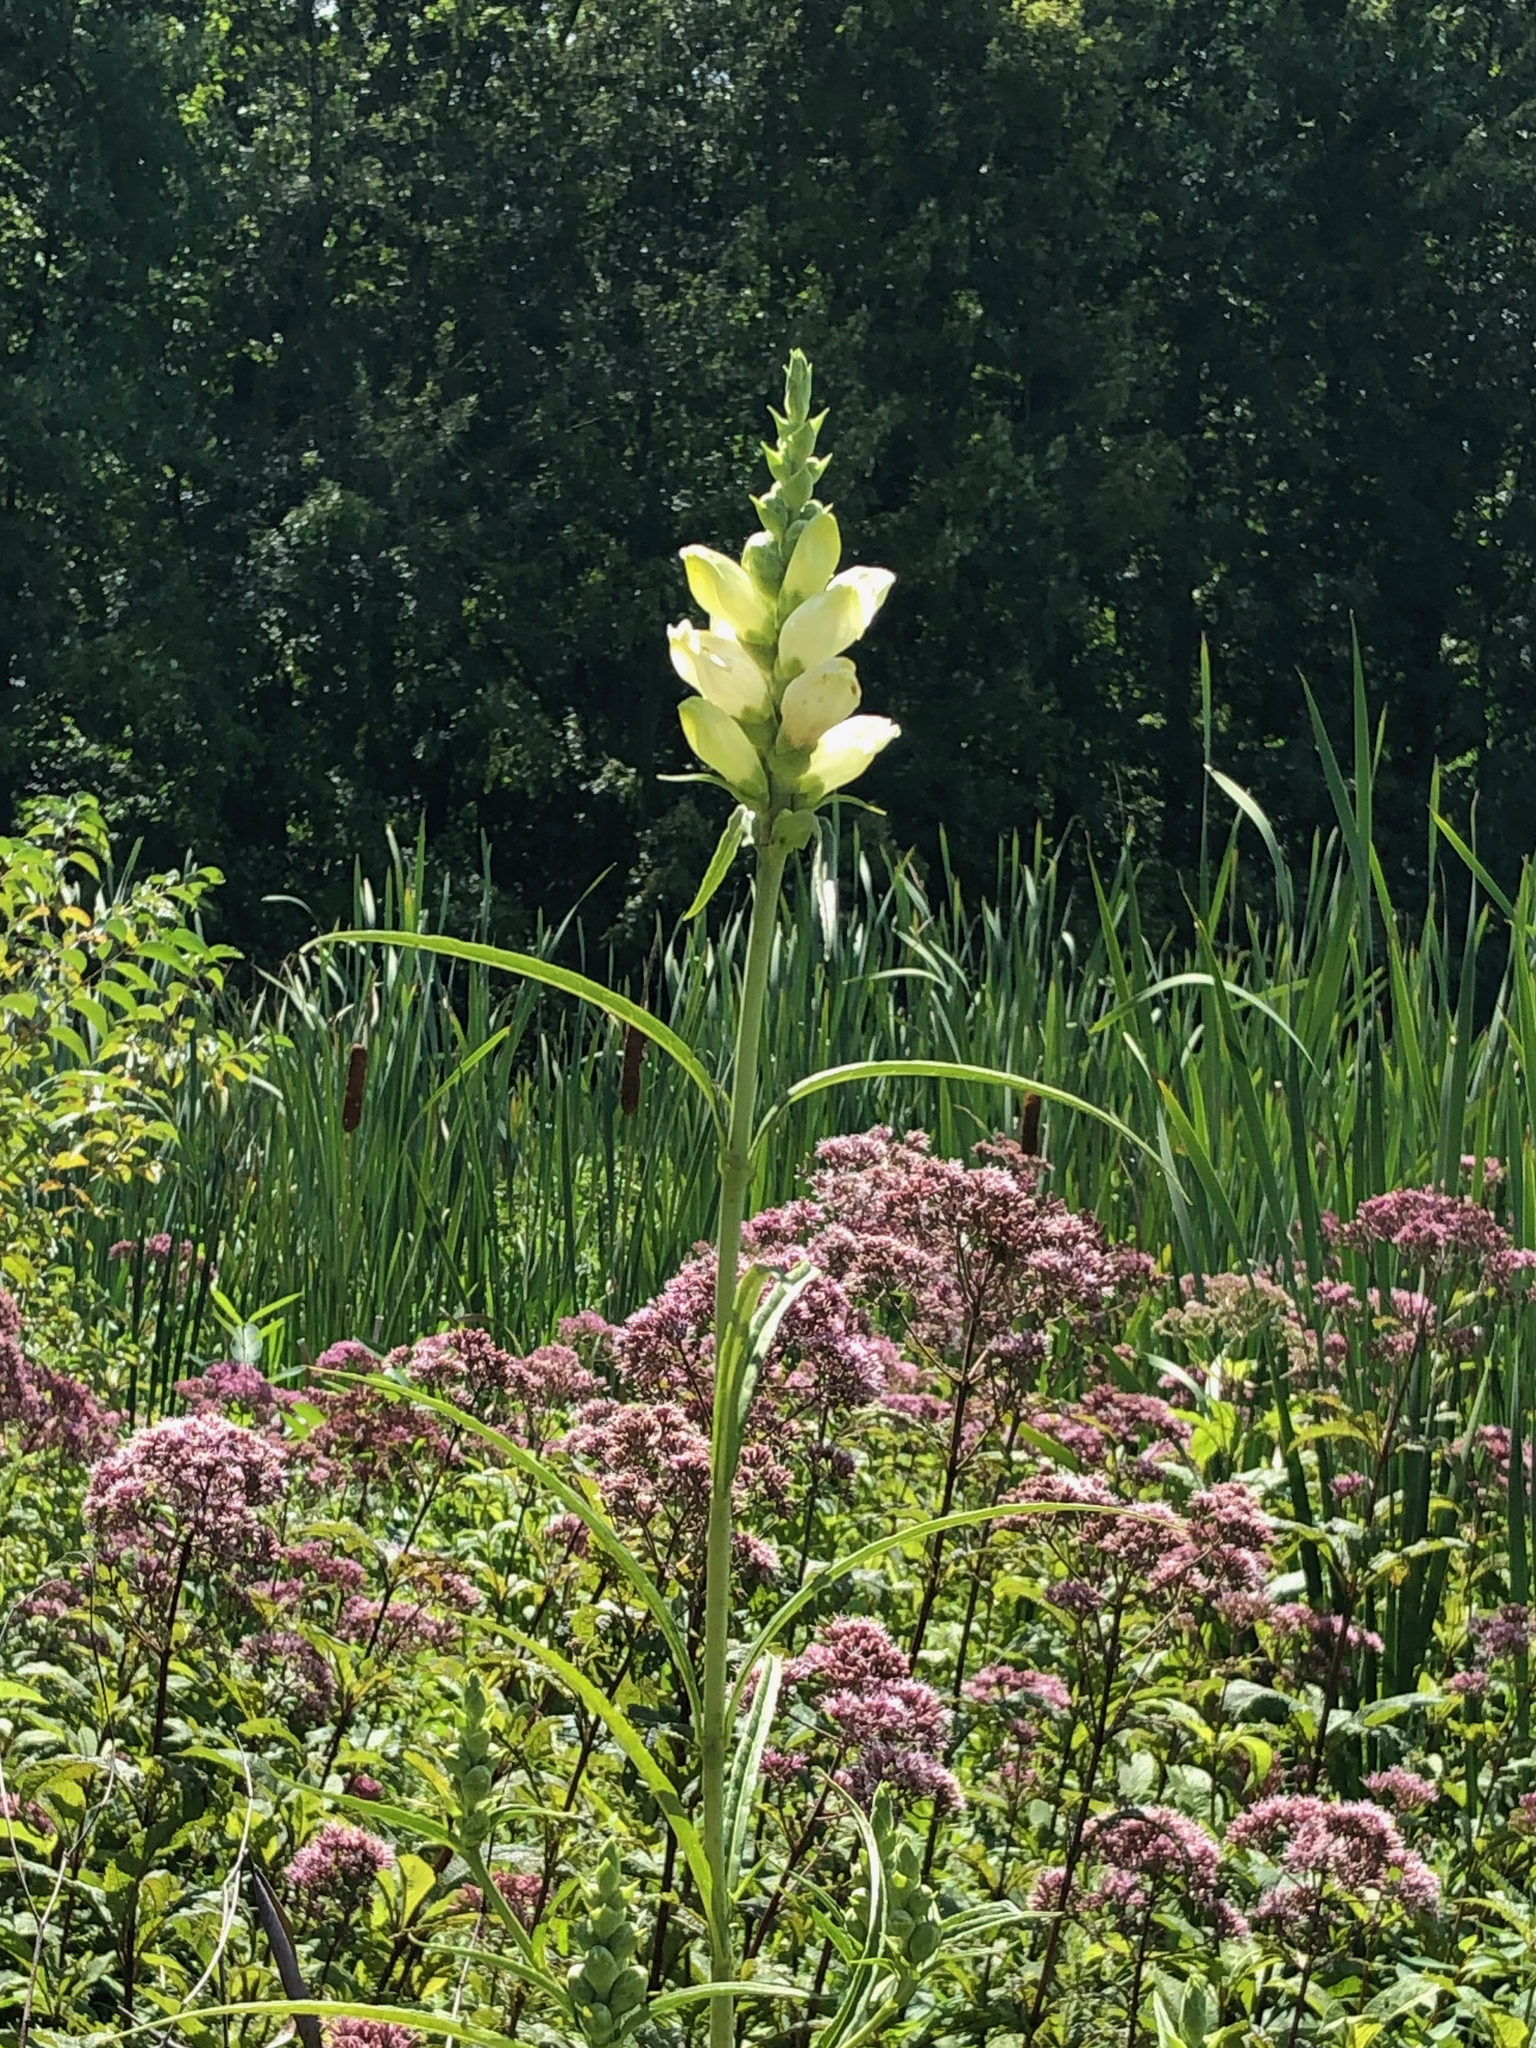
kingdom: Plantae
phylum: Tracheophyta
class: Magnoliopsida
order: Lamiales
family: Plantaginaceae
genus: Chelone
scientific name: Chelone glabra
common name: Snakehead
